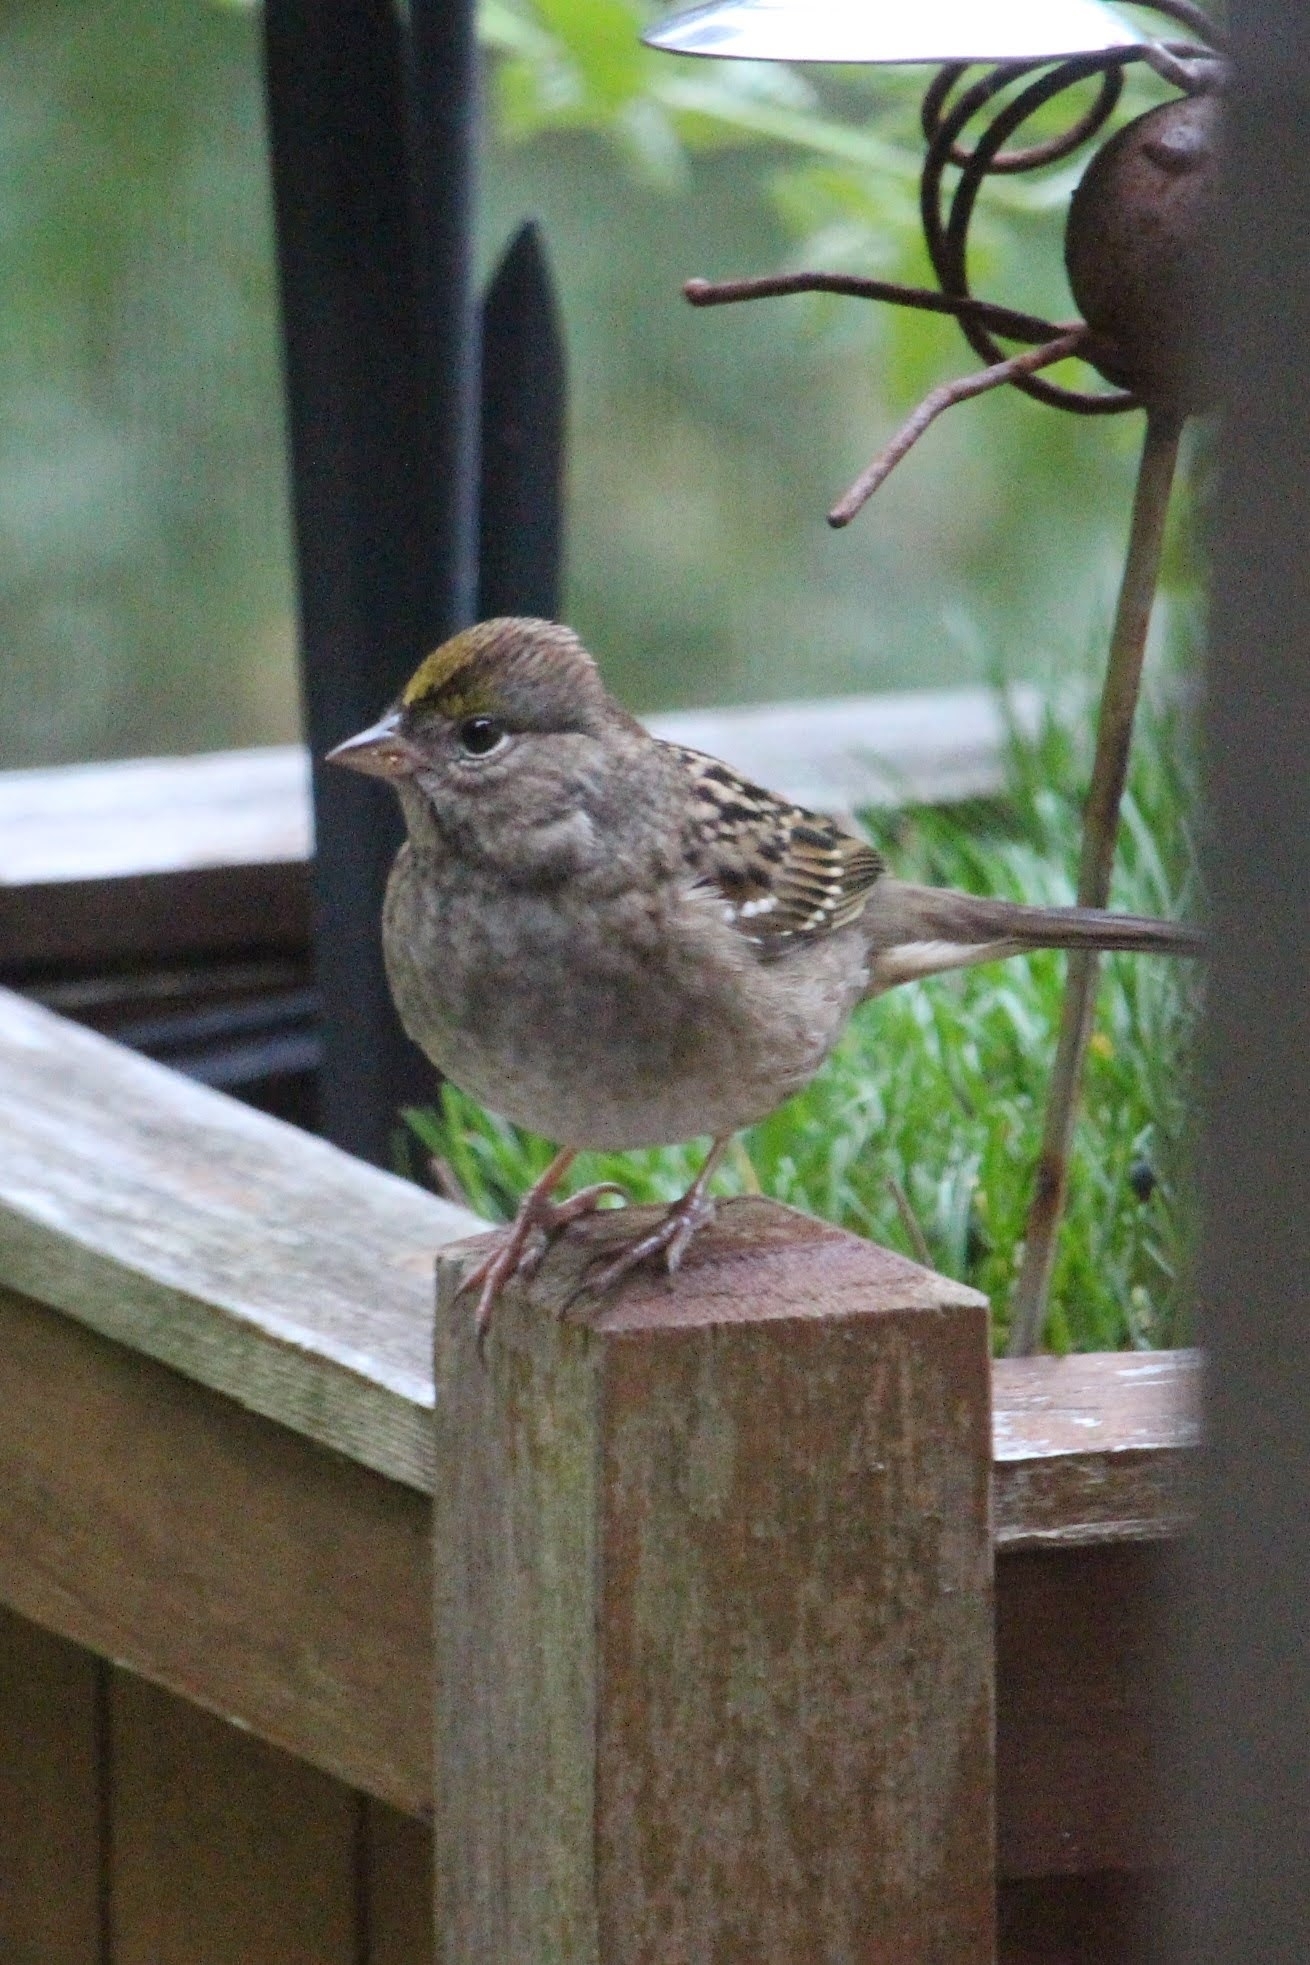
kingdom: Animalia
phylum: Chordata
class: Aves
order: Passeriformes
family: Passerellidae
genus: Zonotrichia
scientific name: Zonotrichia atricapilla
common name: Golden-crowned sparrow
